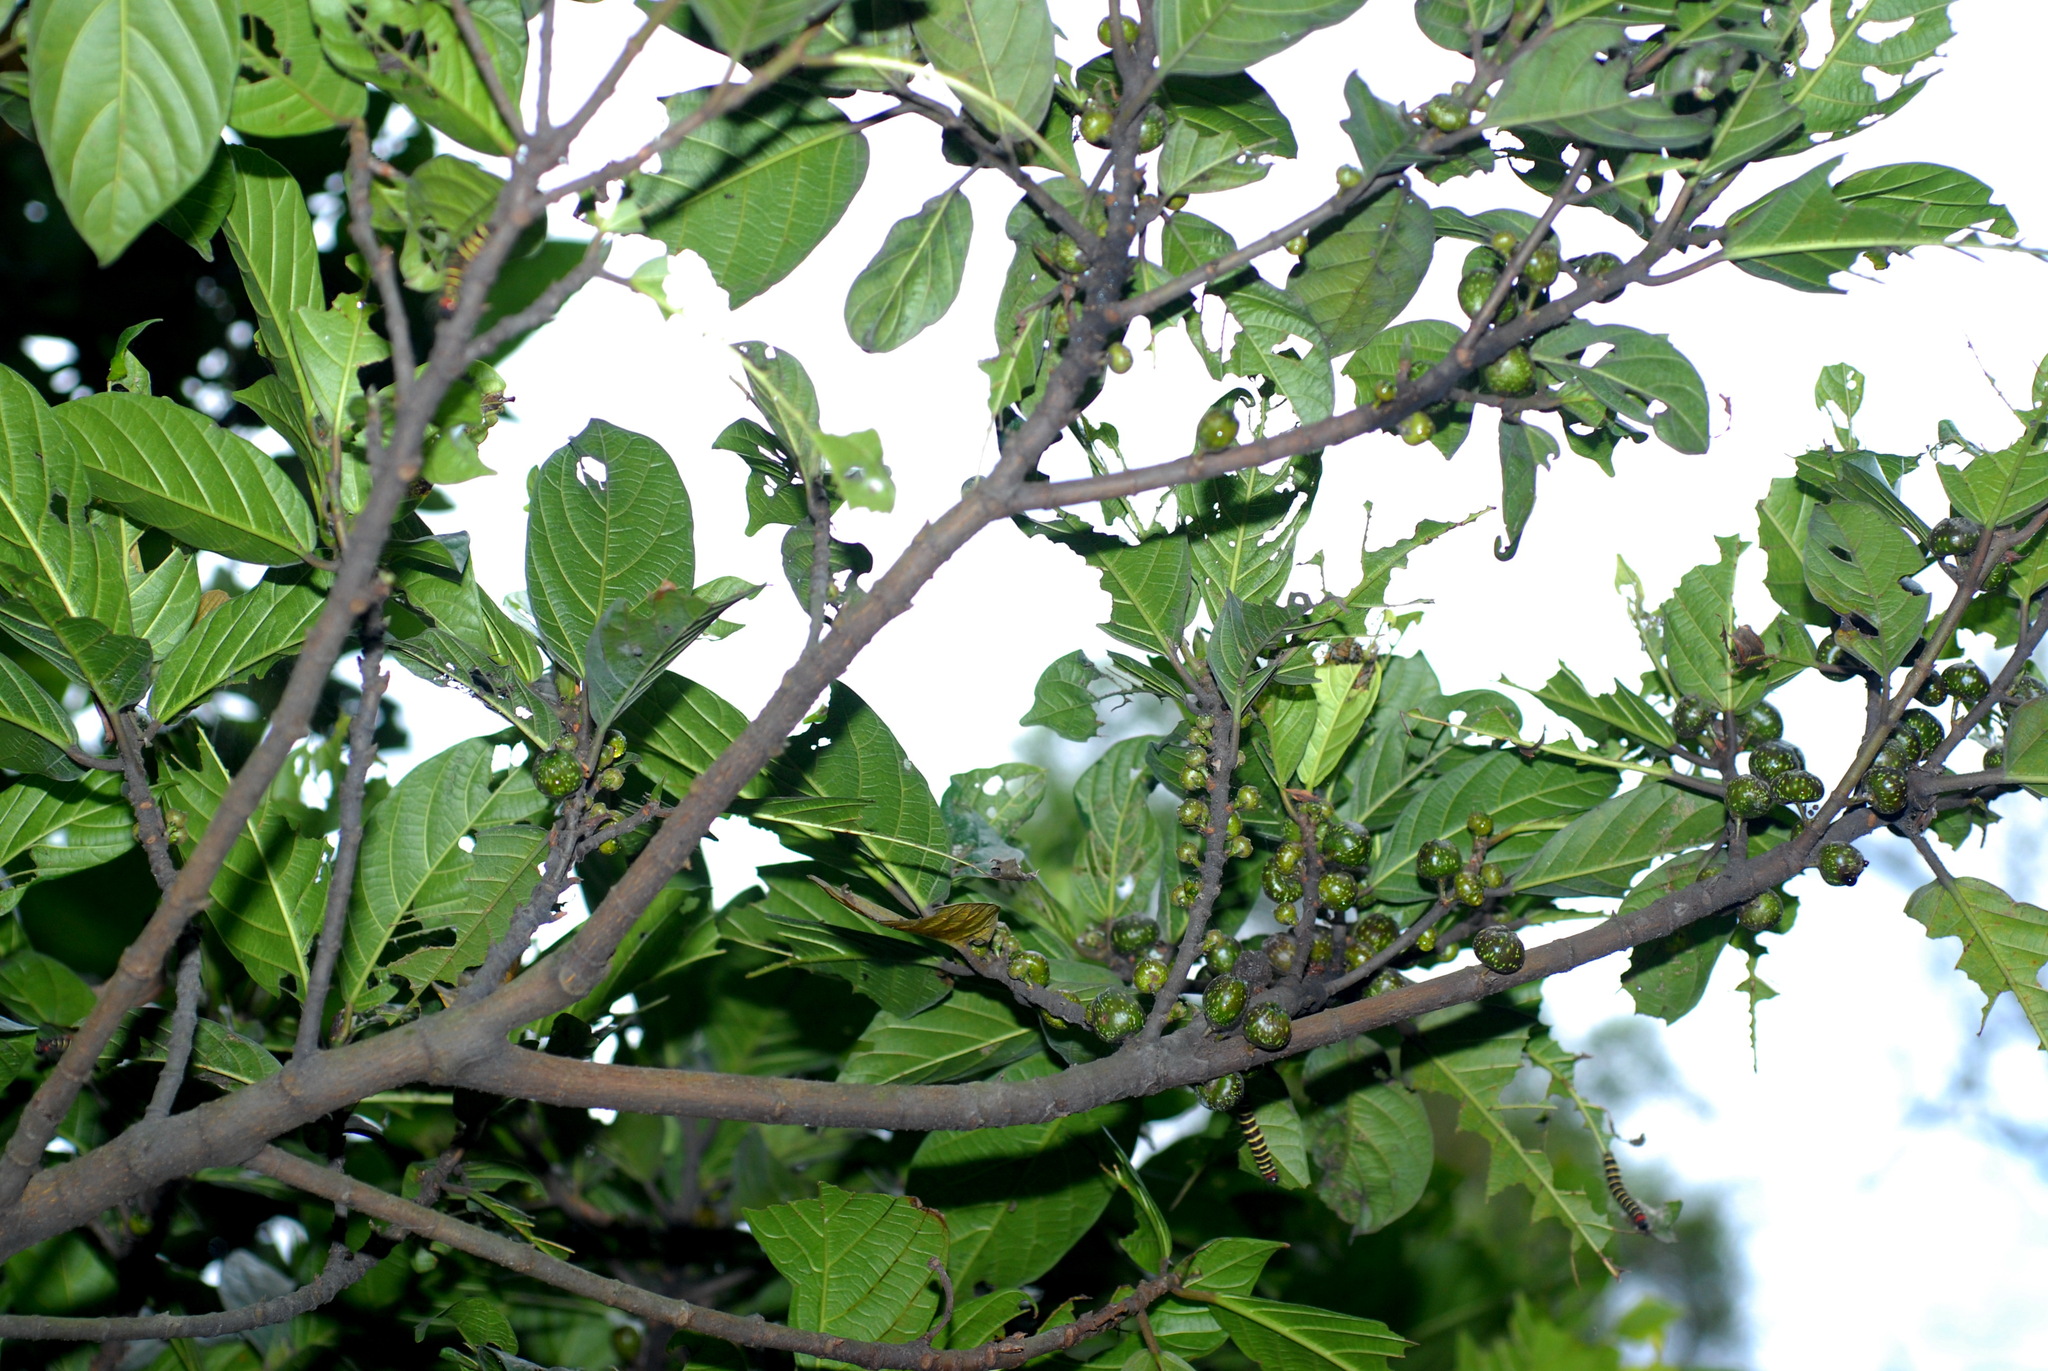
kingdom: Plantae
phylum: Tracheophyta
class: Magnoliopsida
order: Rosales
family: Moraceae
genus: Ficus
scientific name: Ficus benguetensis
